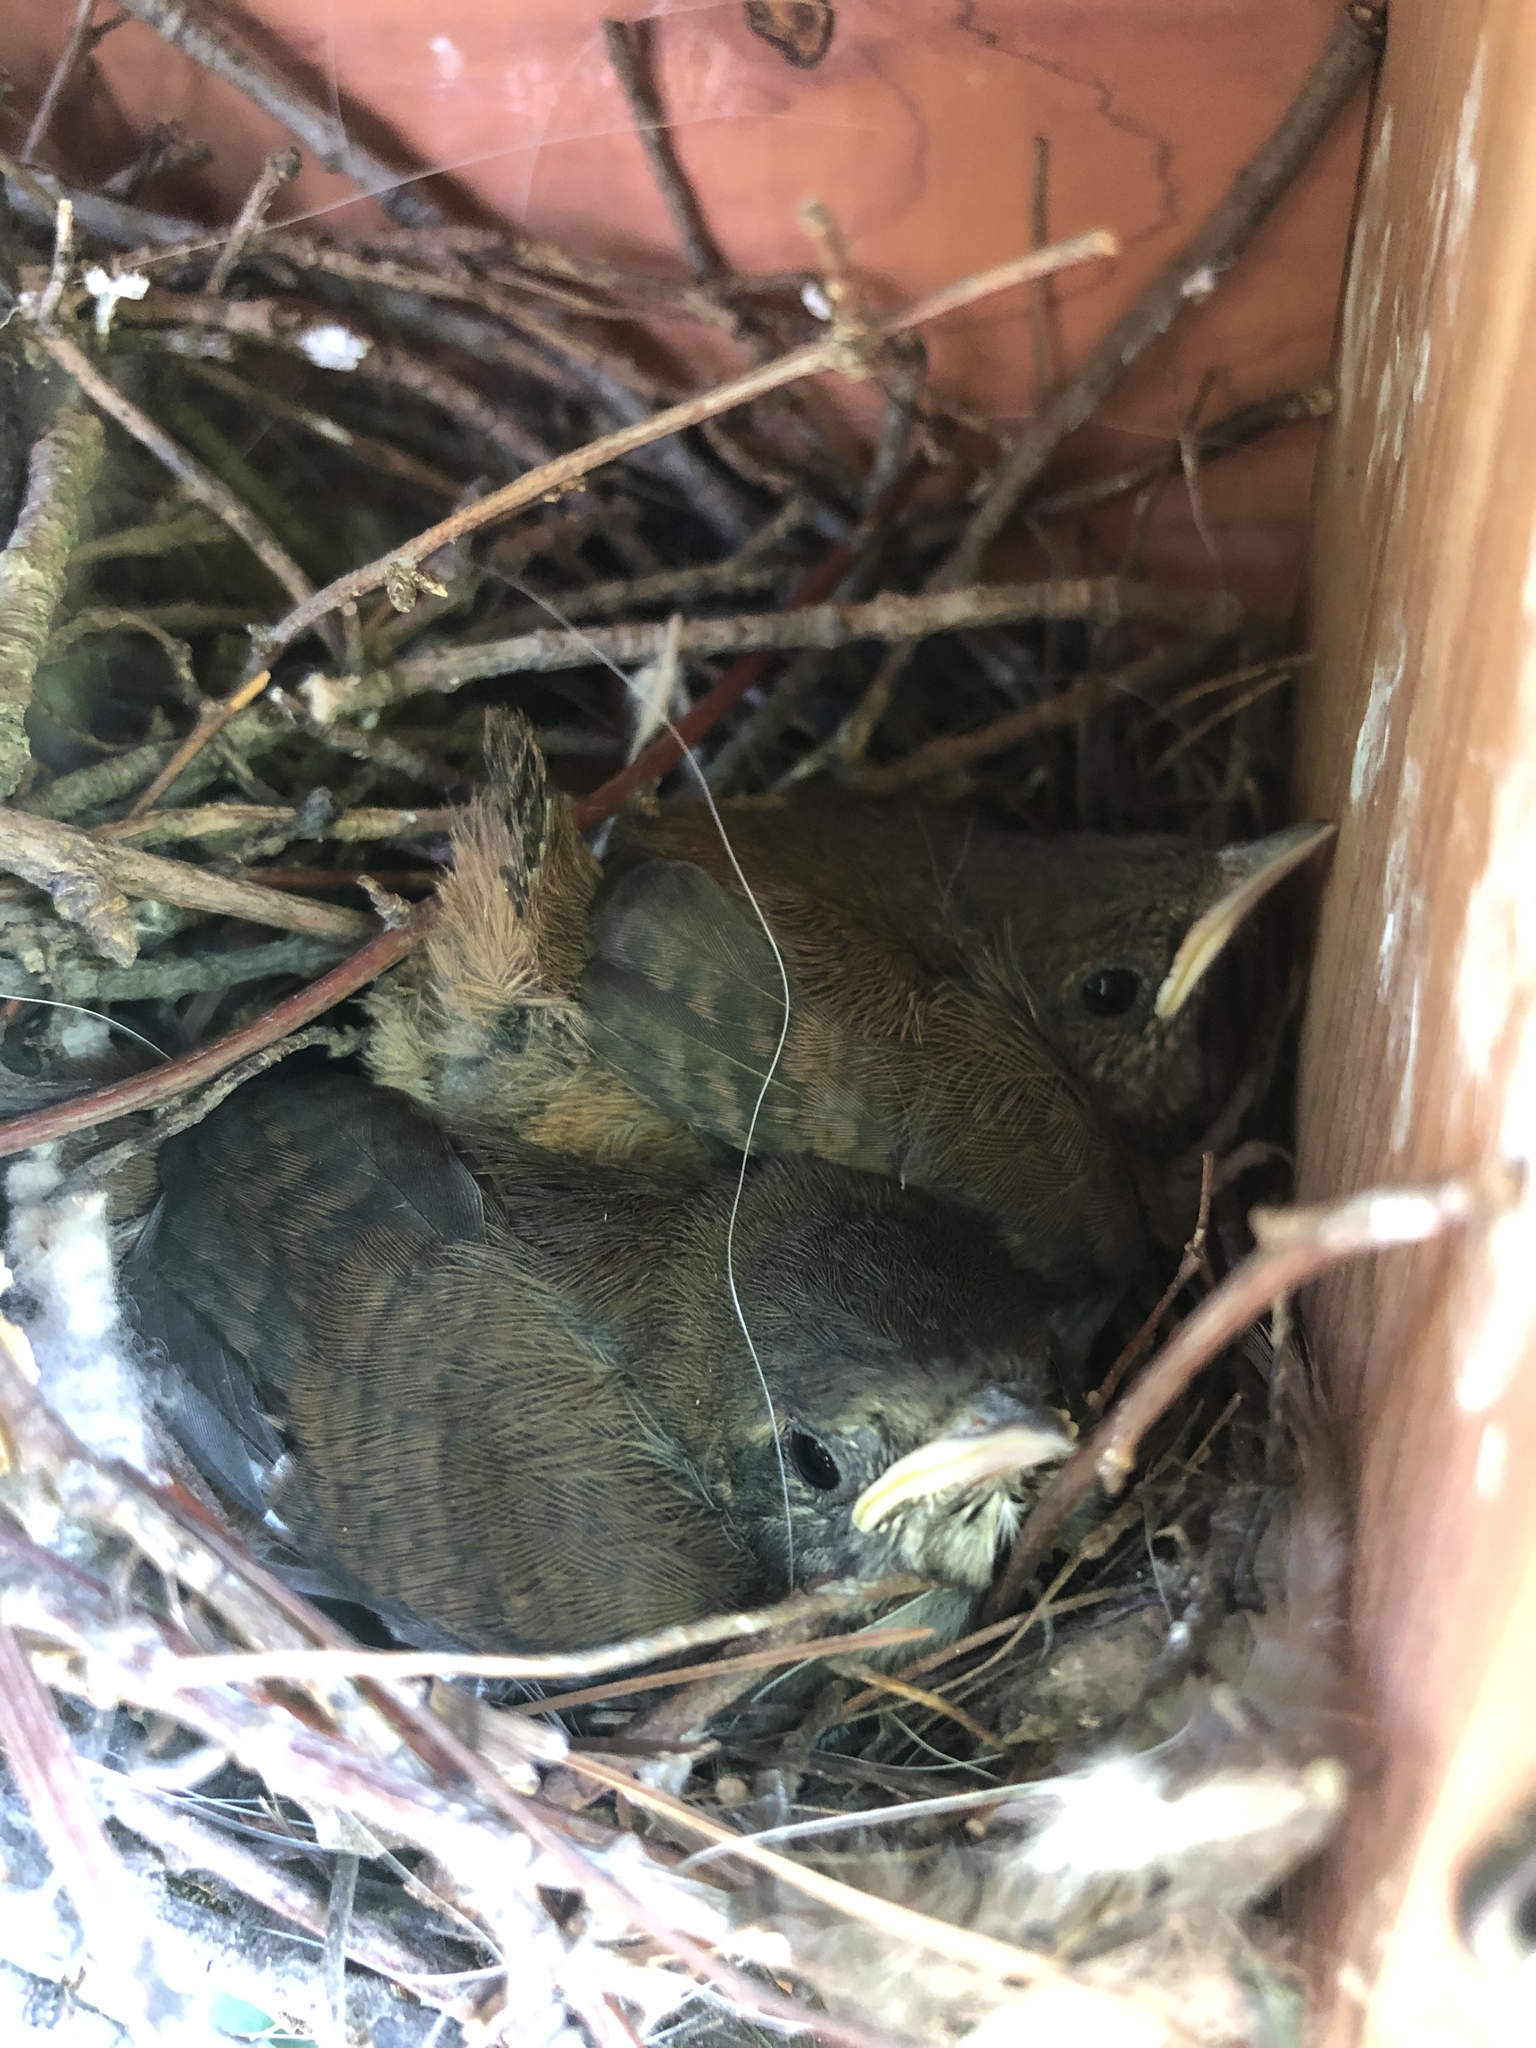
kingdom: Animalia
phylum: Chordata
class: Aves
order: Passeriformes
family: Troglodytidae
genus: Troglodytes
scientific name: Troglodytes aedon
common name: House wren
